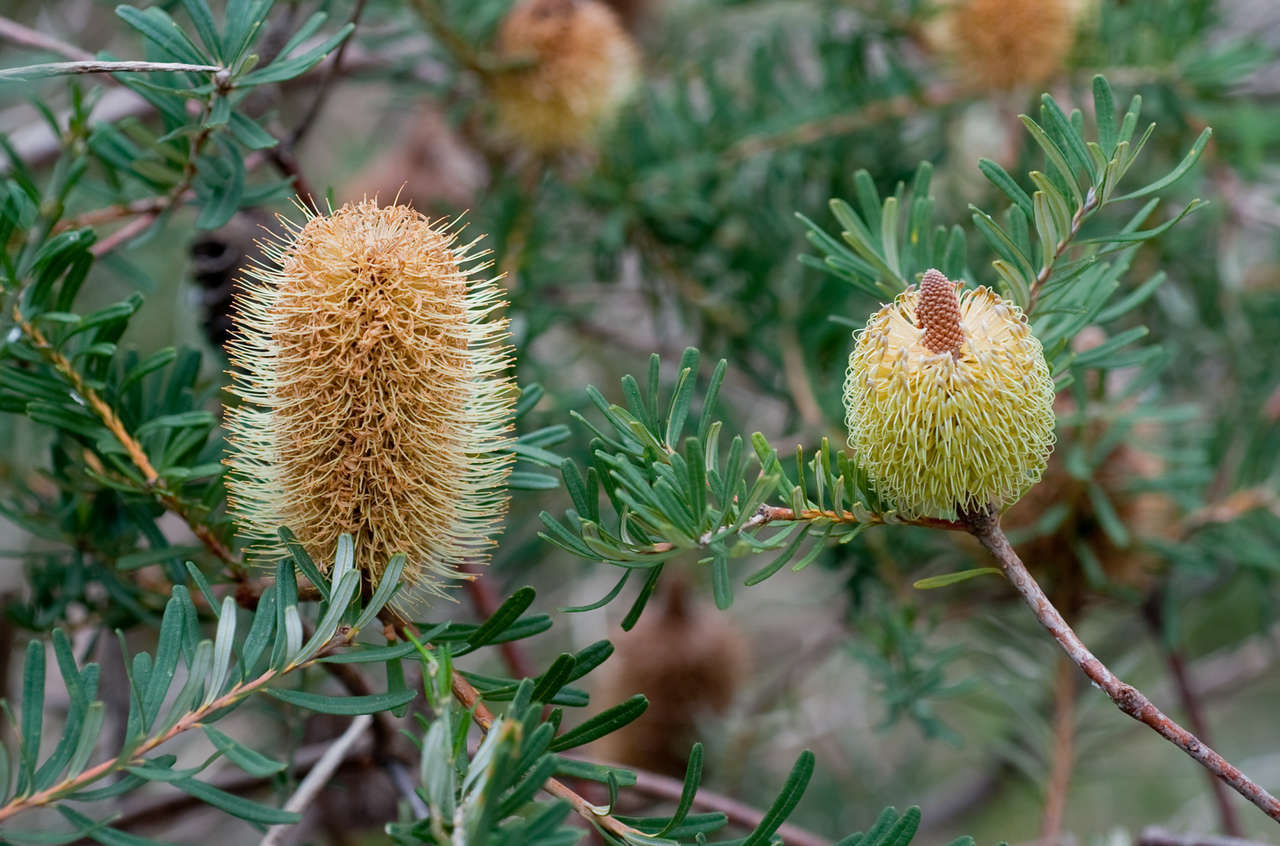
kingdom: Plantae
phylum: Tracheophyta
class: Magnoliopsida
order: Proteales
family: Proteaceae
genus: Banksia
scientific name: Banksia marginata
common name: Silver banksia
